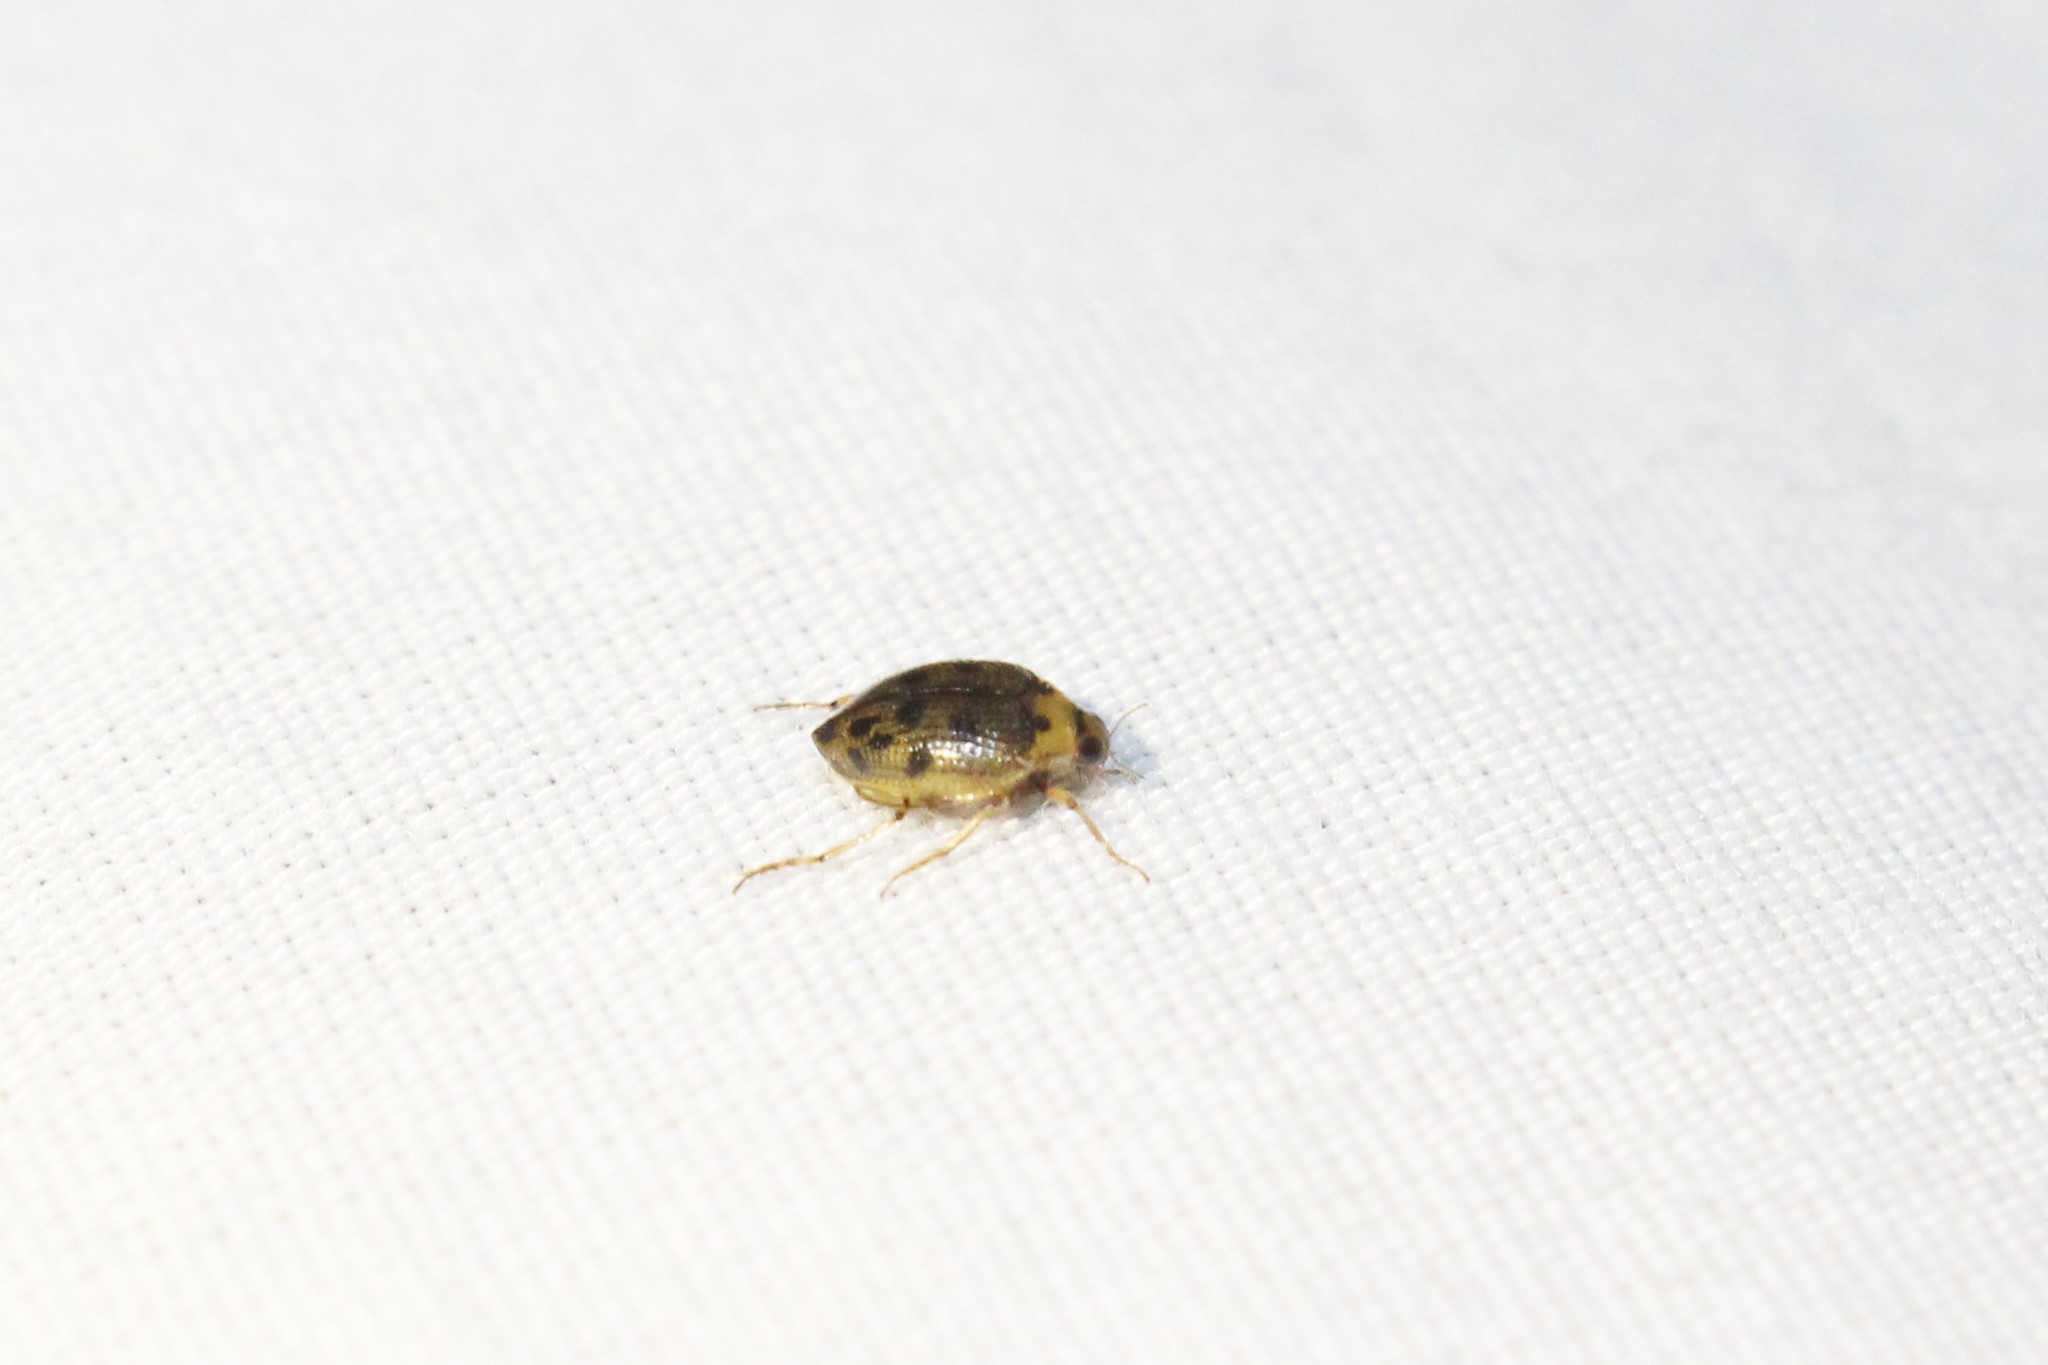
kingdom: Animalia
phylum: Arthropoda
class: Insecta
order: Coleoptera
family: Haliplidae
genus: Peltodytes
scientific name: Peltodytes edentulus
